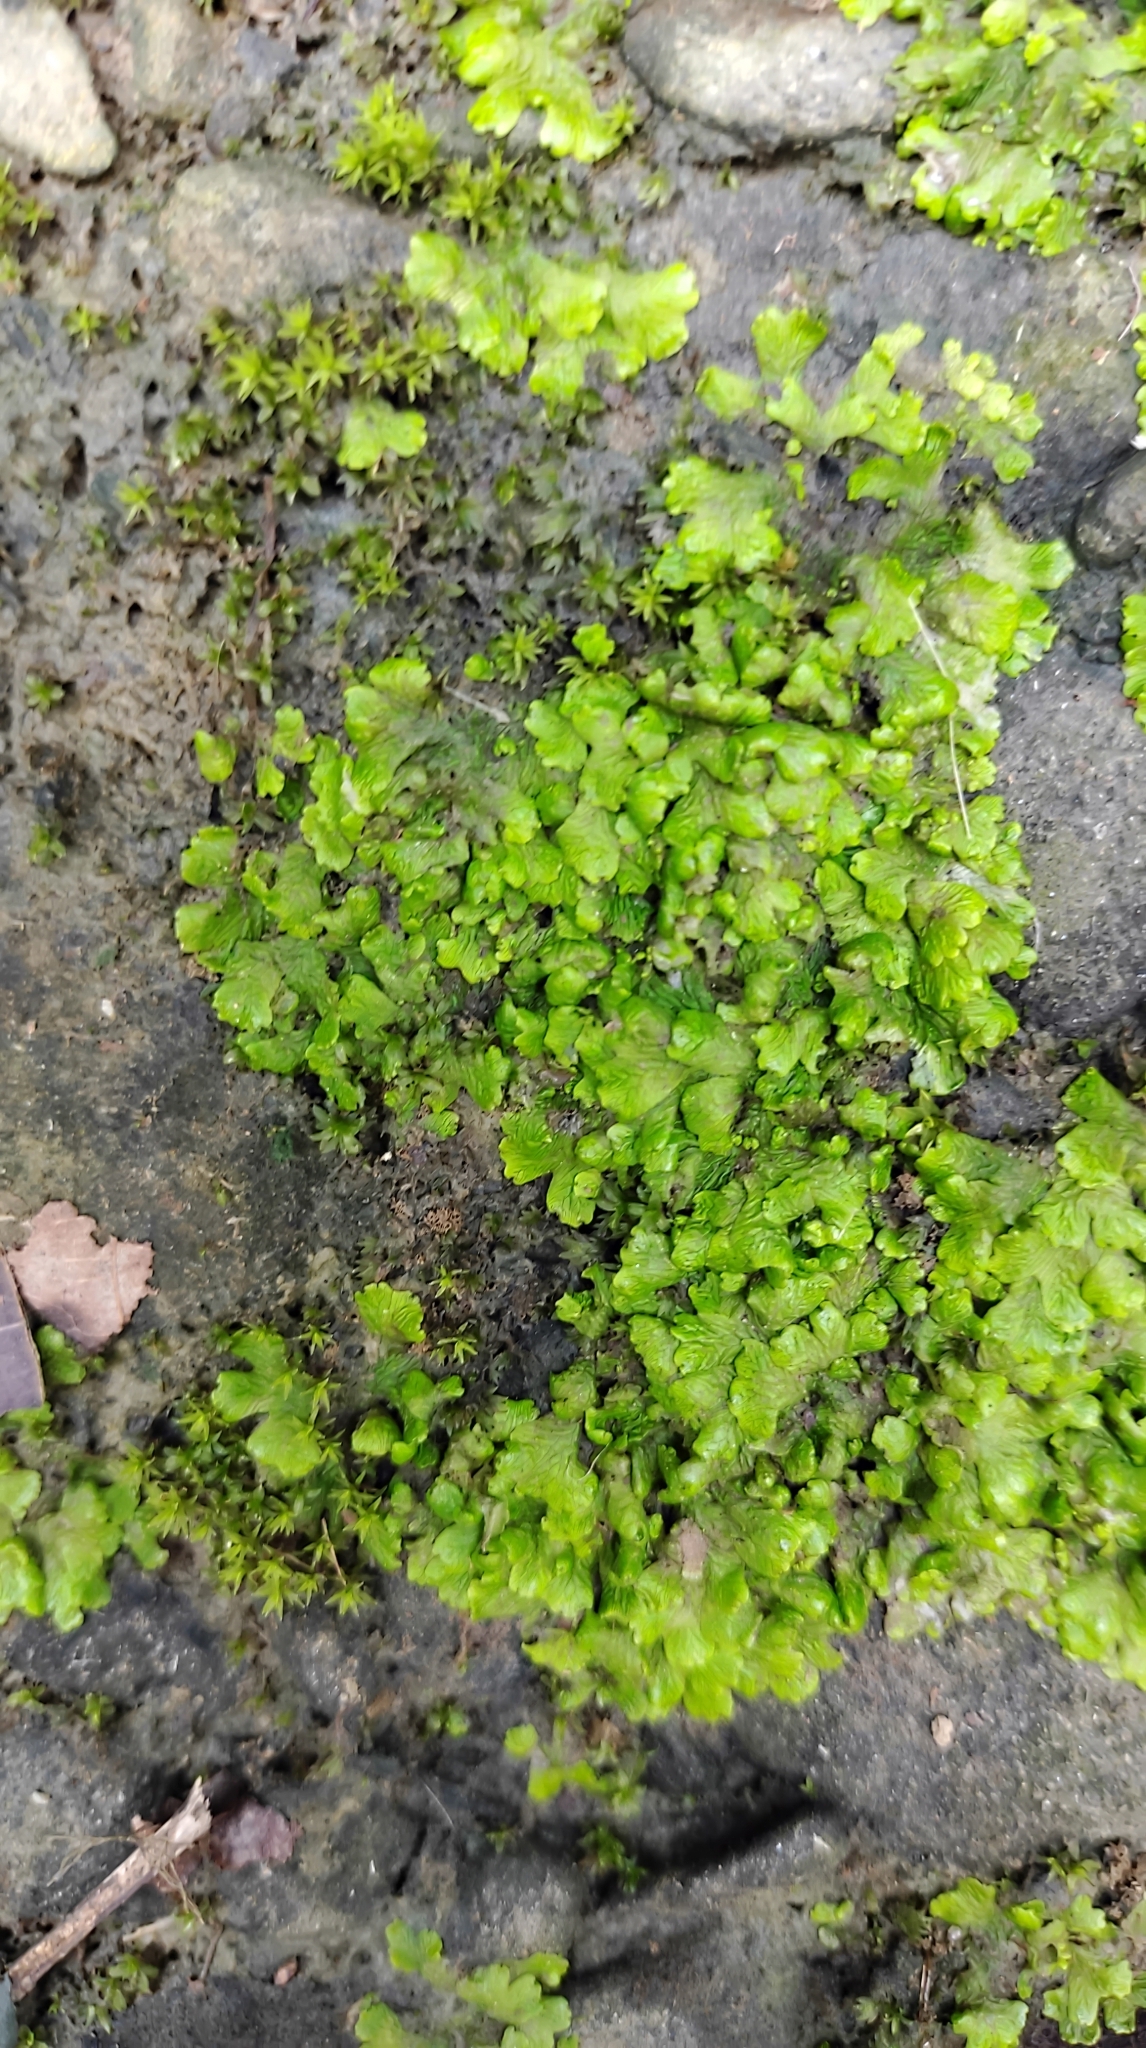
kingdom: Plantae
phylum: Marchantiophyta
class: Marchantiopsida
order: Marchantiales
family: Cyathodiaceae
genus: Cyathodium
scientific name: Cyathodium smaragdinum
